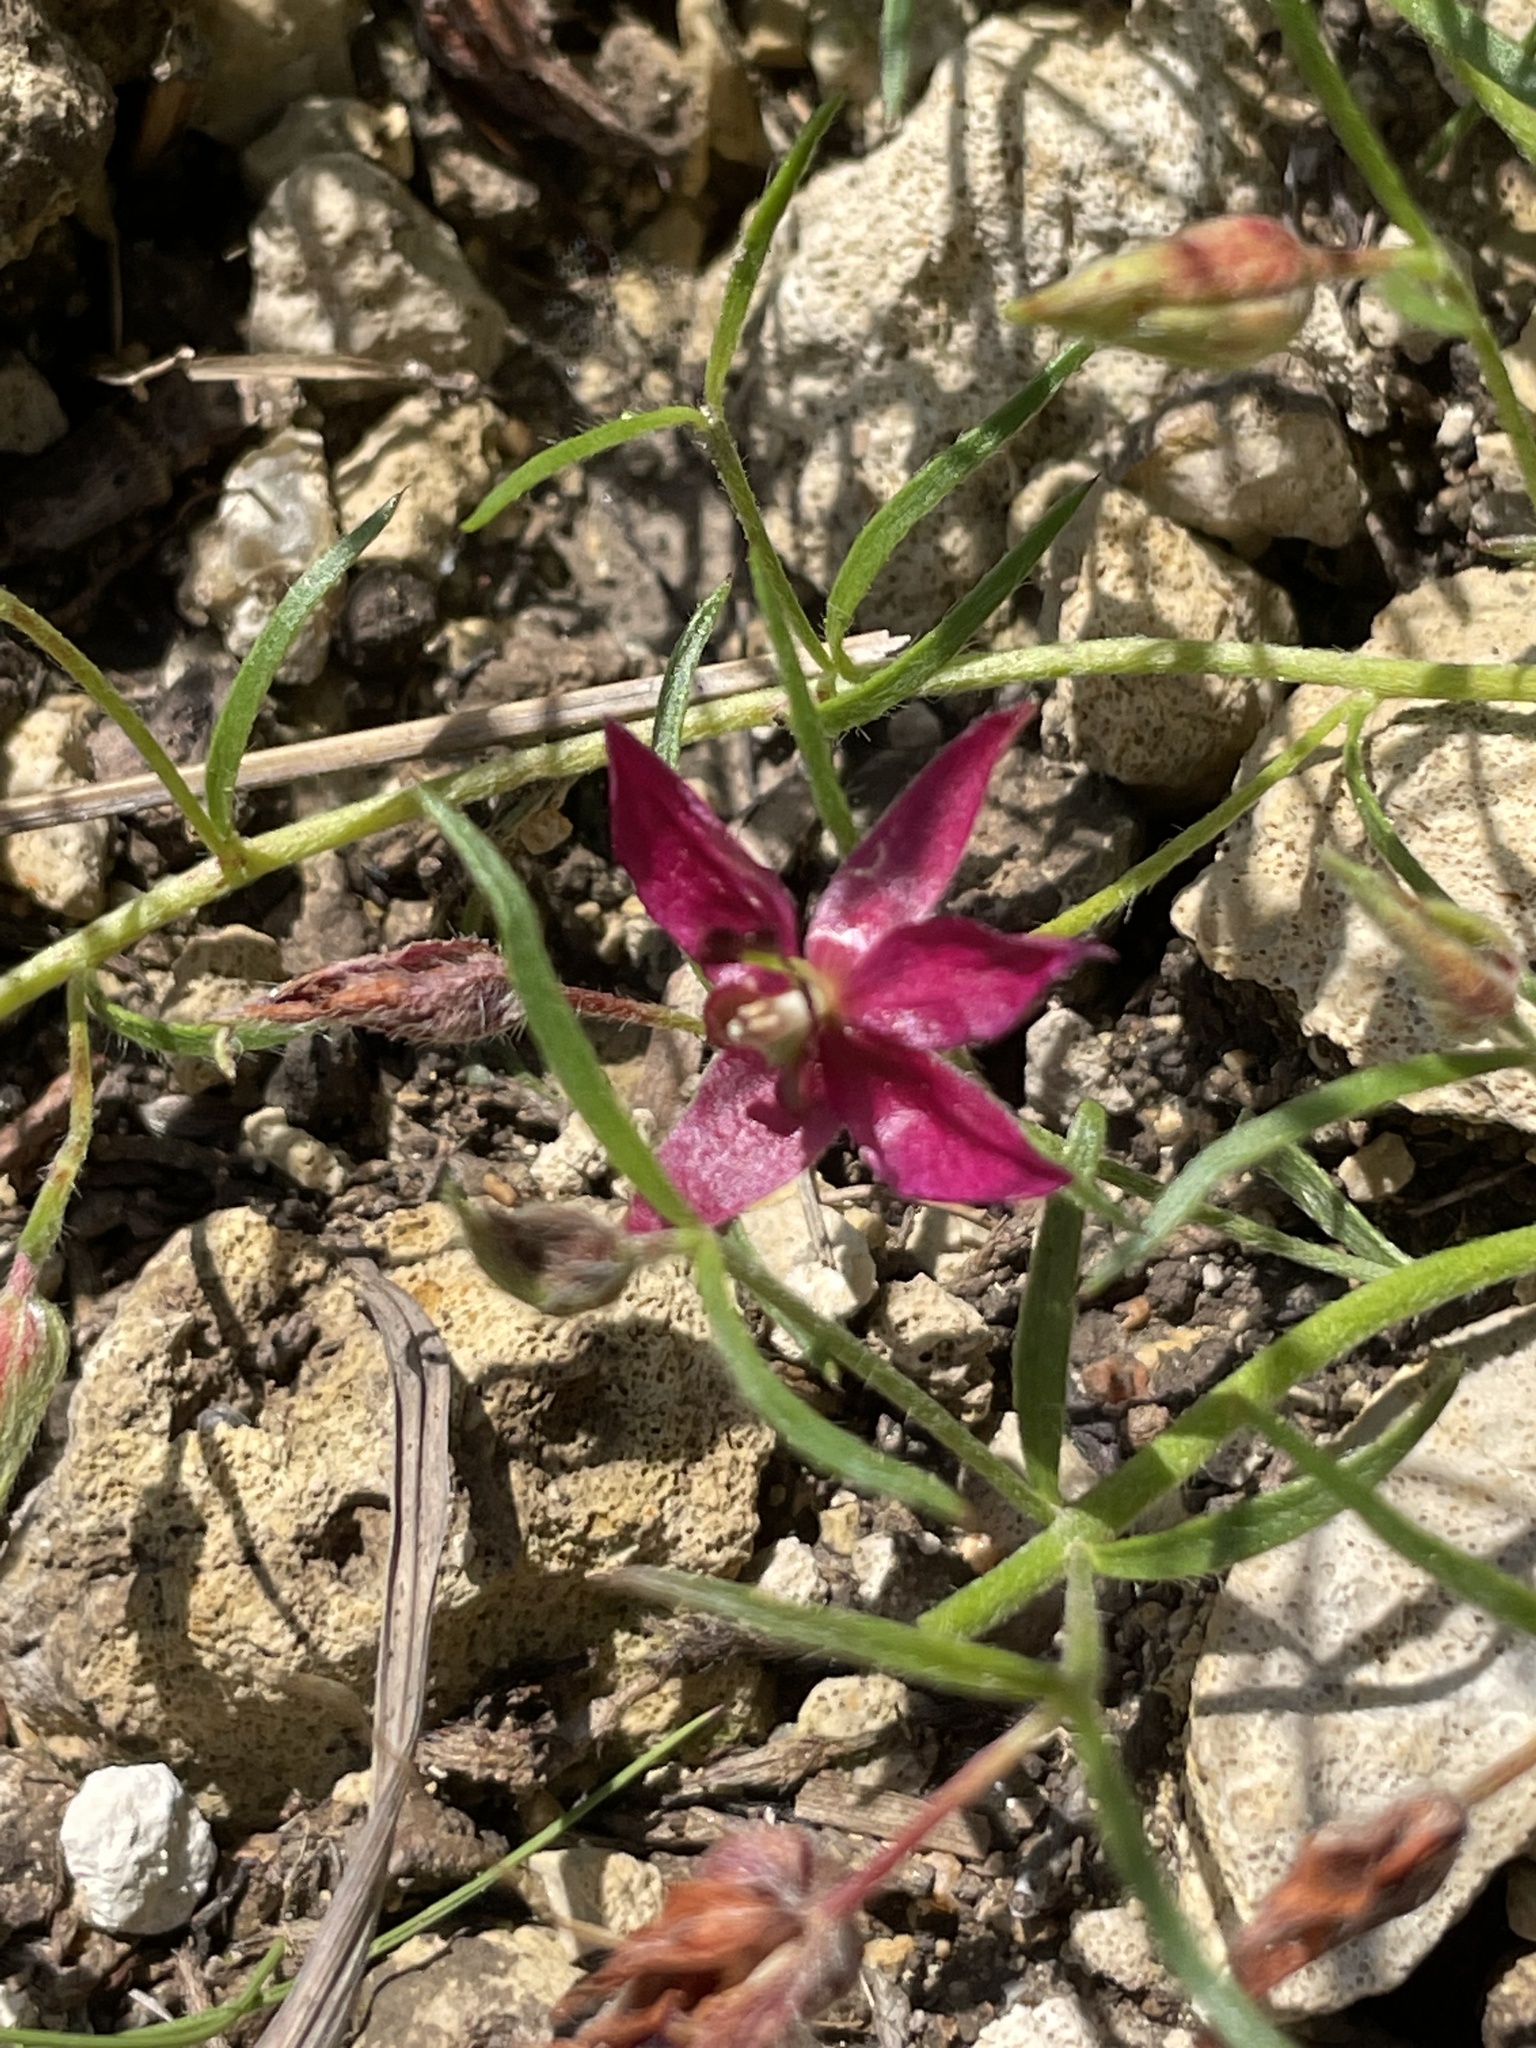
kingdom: Plantae
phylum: Tracheophyta
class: Magnoliopsida
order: Zygophyllales
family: Krameriaceae
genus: Krameria
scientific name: Krameria lanceolata
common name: Ratany
